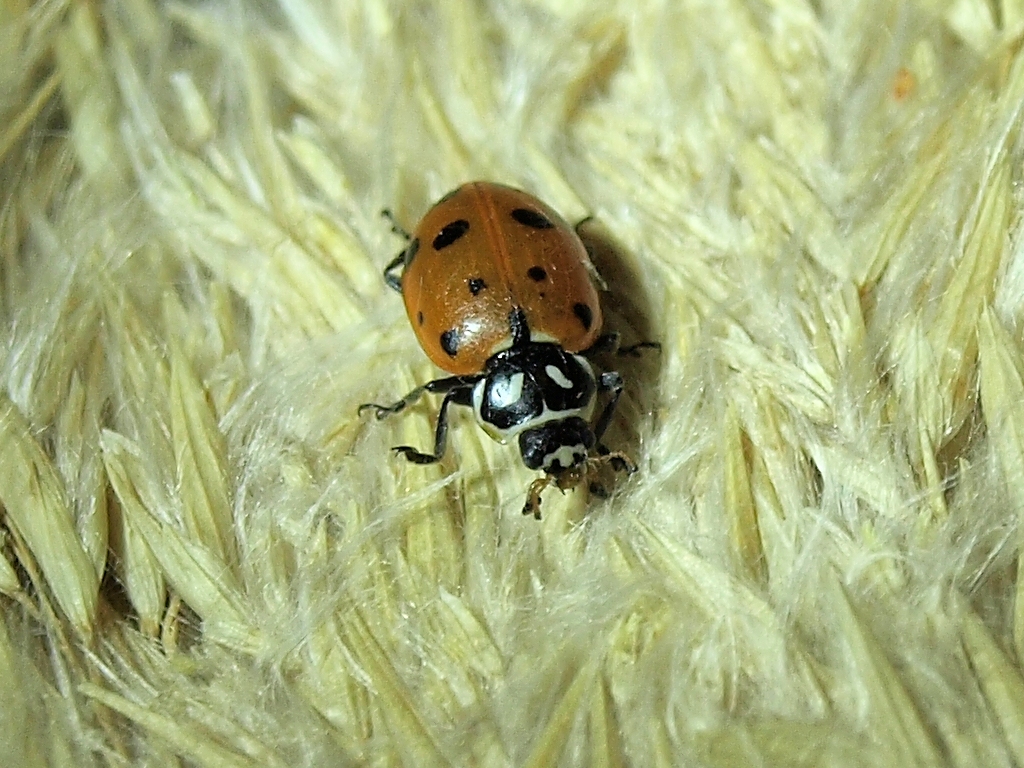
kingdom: Animalia
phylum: Arthropoda
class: Insecta
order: Coleoptera
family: Coccinellidae
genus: Hippodamia
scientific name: Hippodamia convergens
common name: Convergent lady beetle
